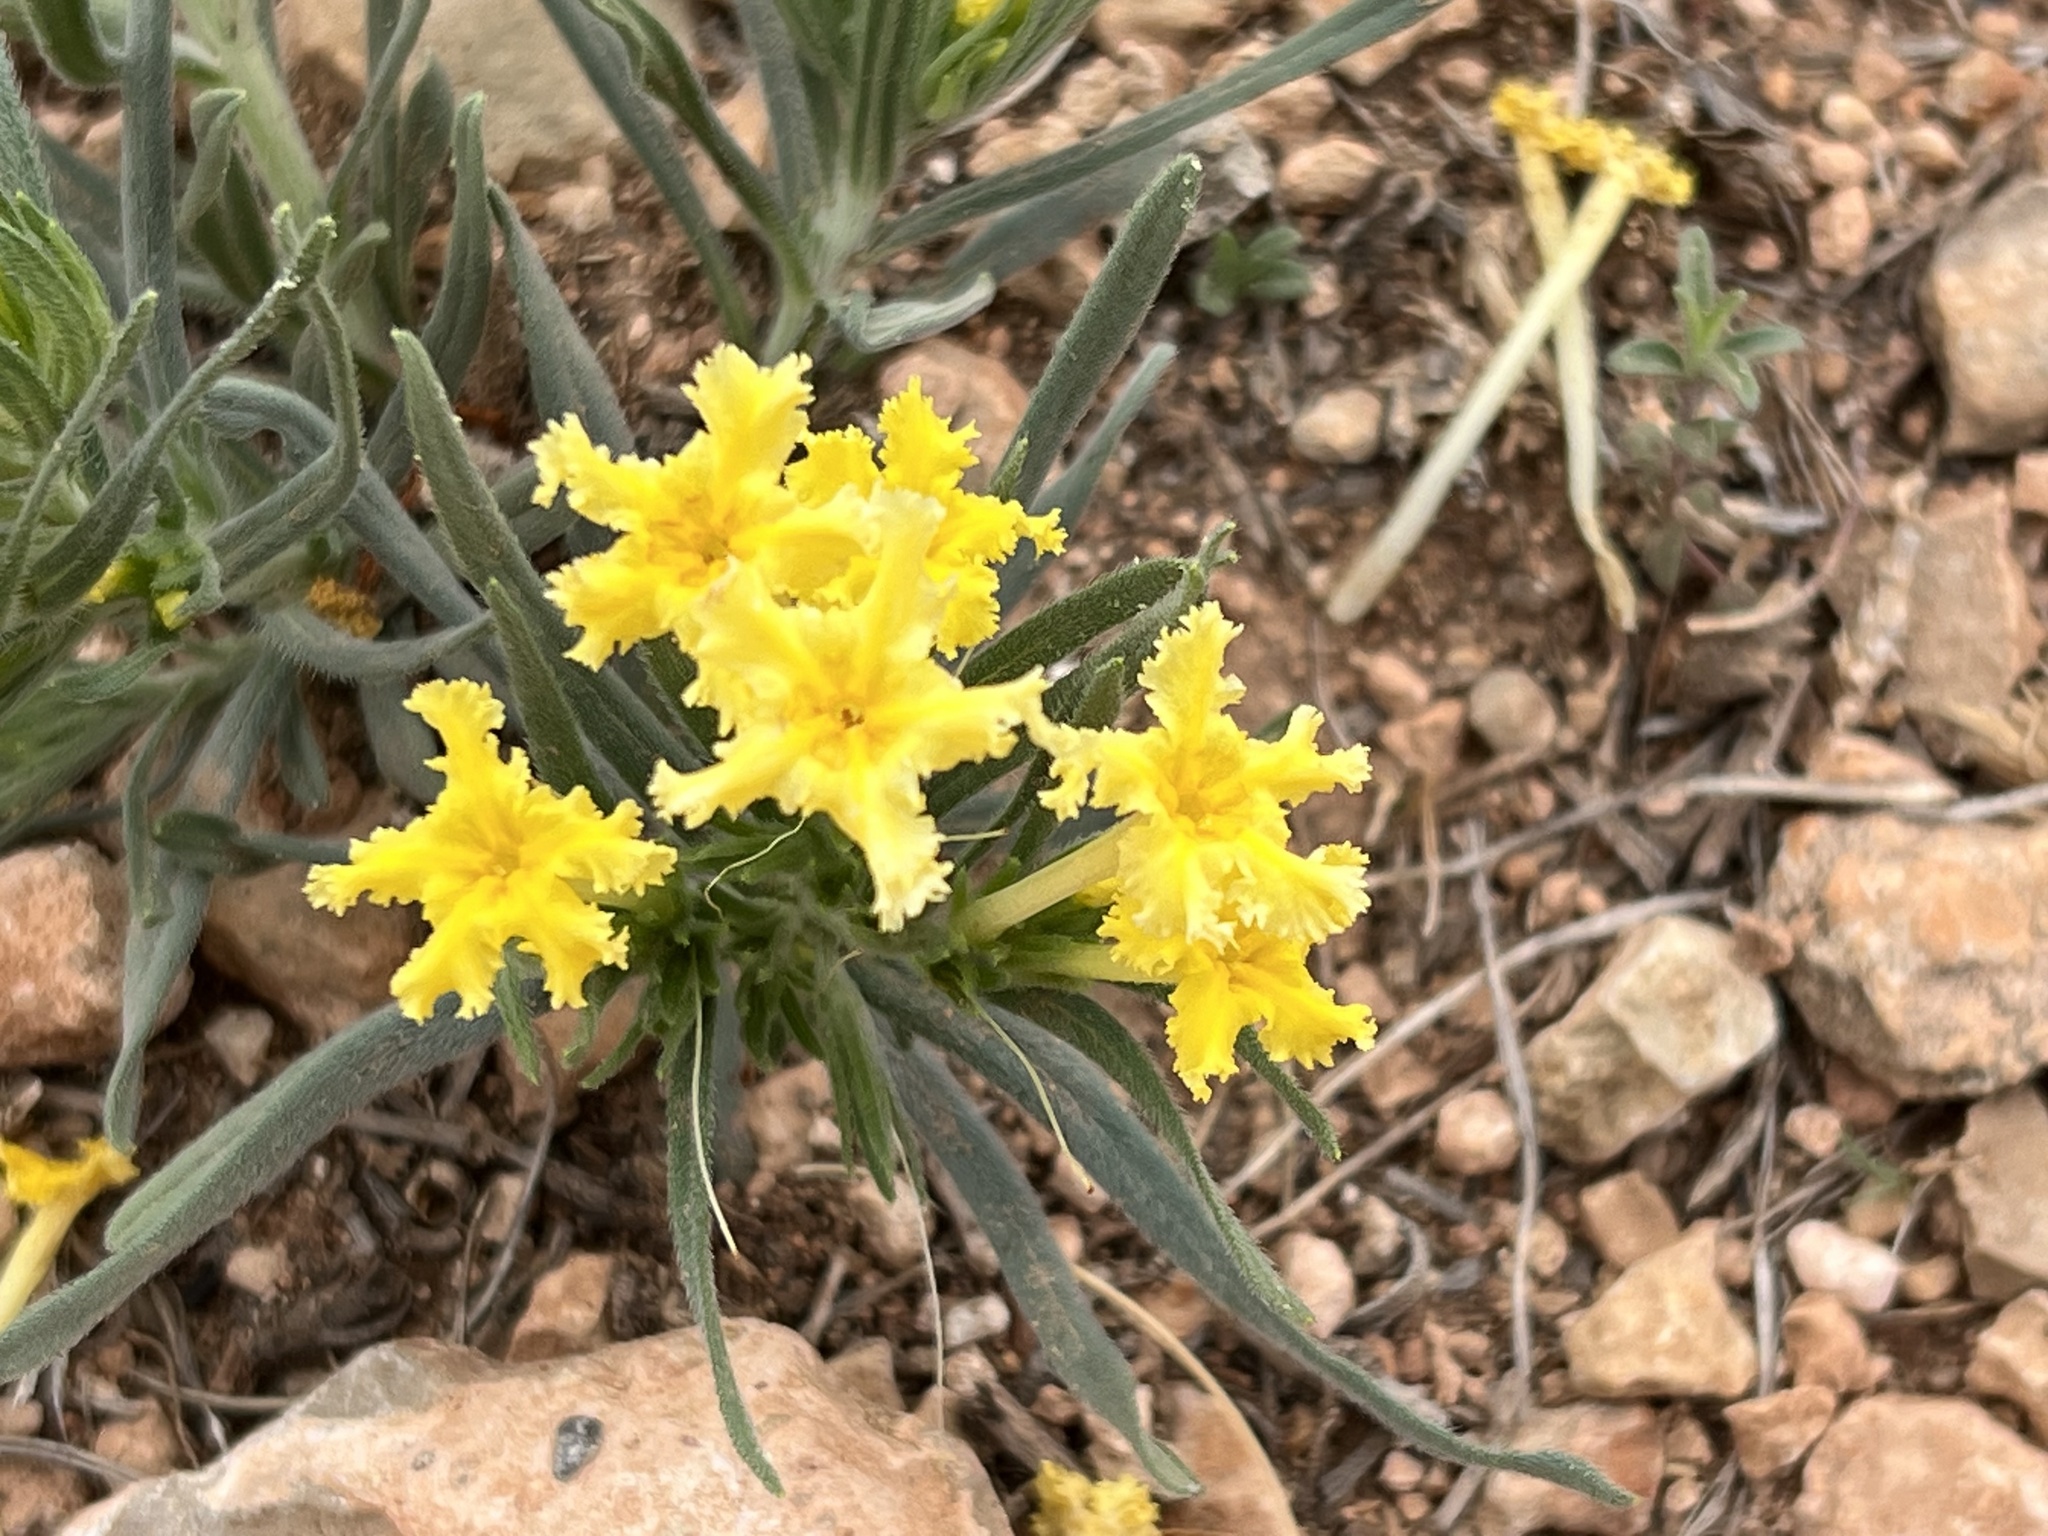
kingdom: Plantae
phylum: Tracheophyta
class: Magnoliopsida
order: Boraginales
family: Boraginaceae
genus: Lithospermum
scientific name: Lithospermum incisum
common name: Fringed gromwell
